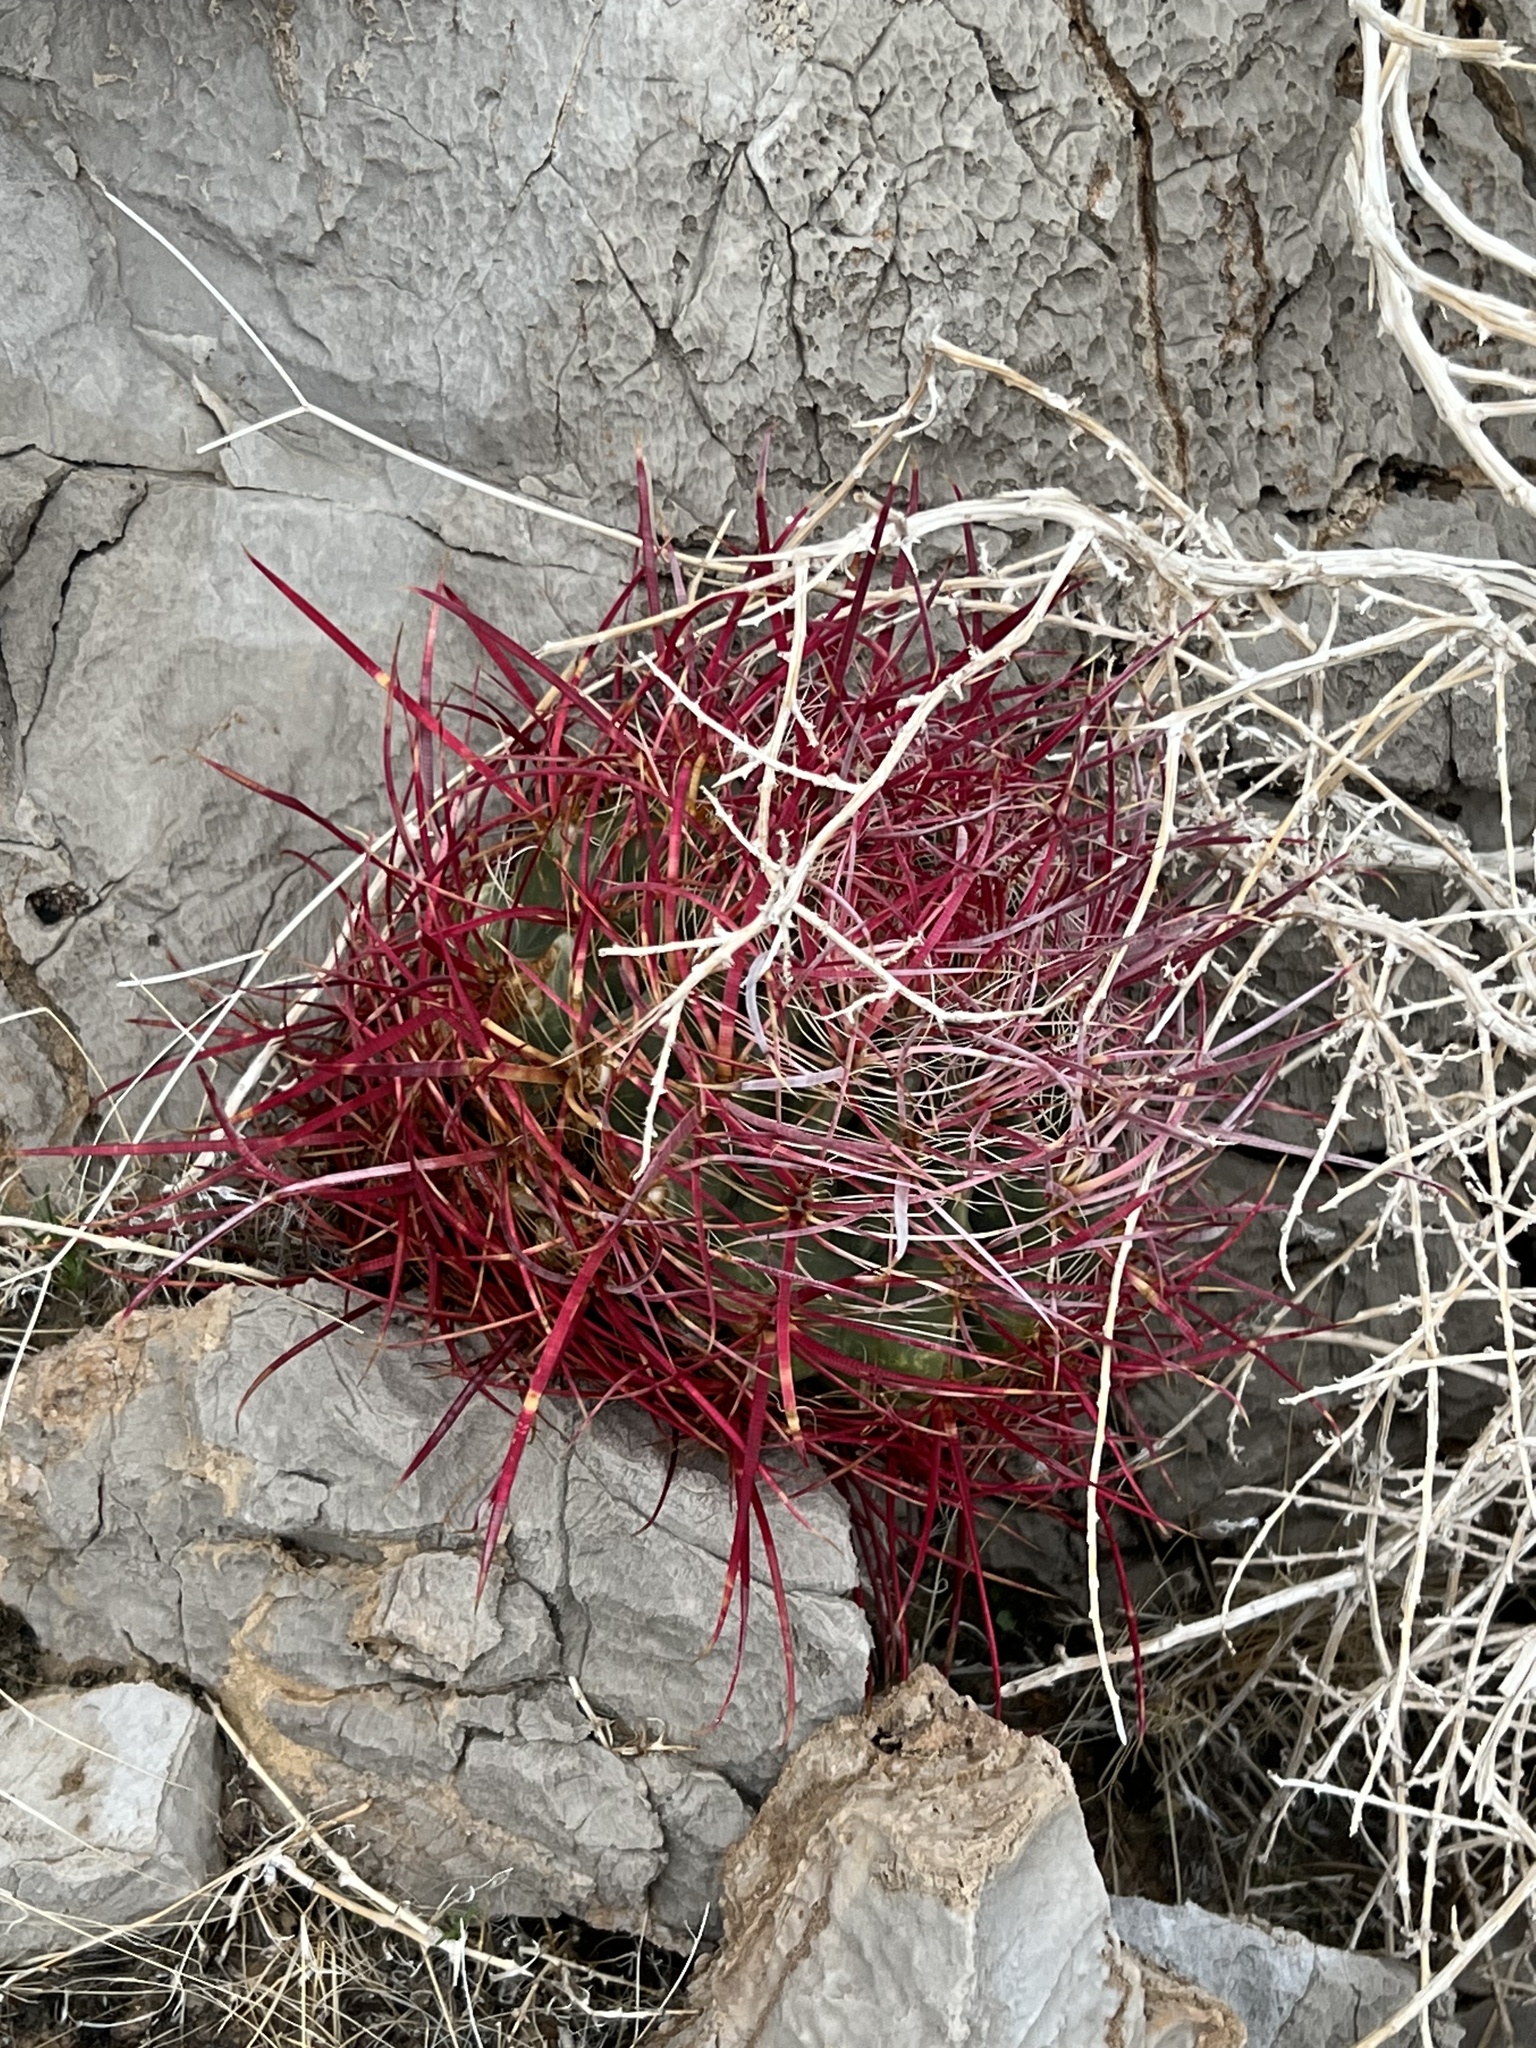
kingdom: Plantae
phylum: Tracheophyta
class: Magnoliopsida
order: Caryophyllales
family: Cactaceae
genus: Ferocactus
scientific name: Ferocactus cylindraceus
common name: California barrel cactus
